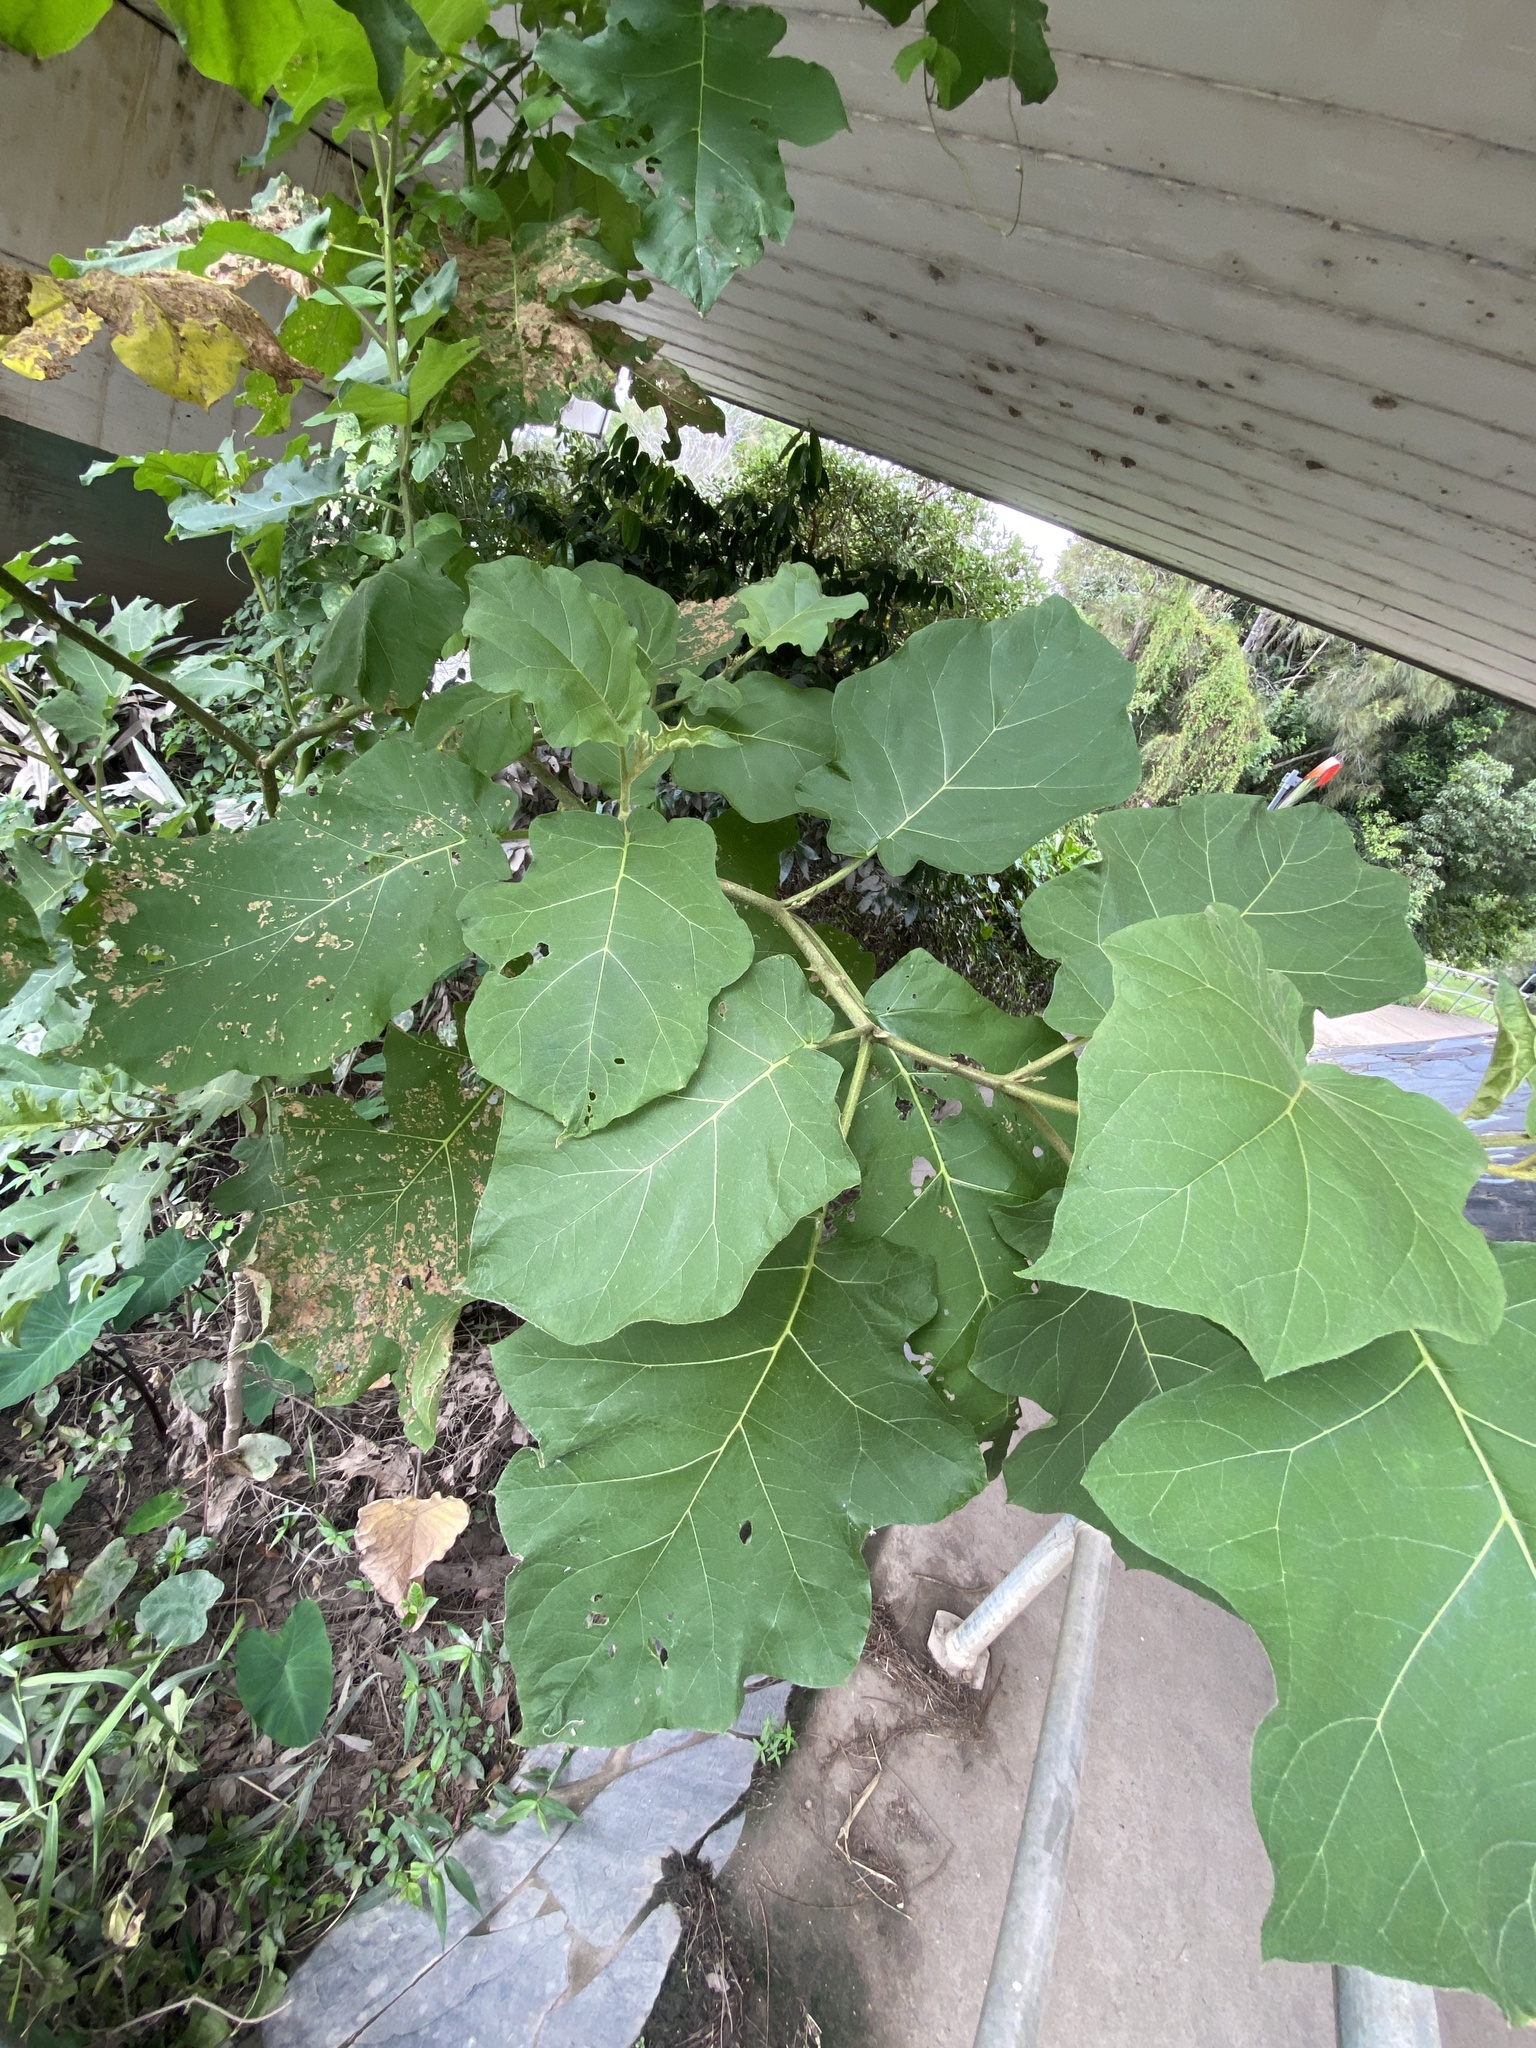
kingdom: Plantae
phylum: Tracheophyta
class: Magnoliopsida
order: Solanales
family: Solanaceae
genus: Solanum
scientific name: Solanum torvum
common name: Turkey berry
